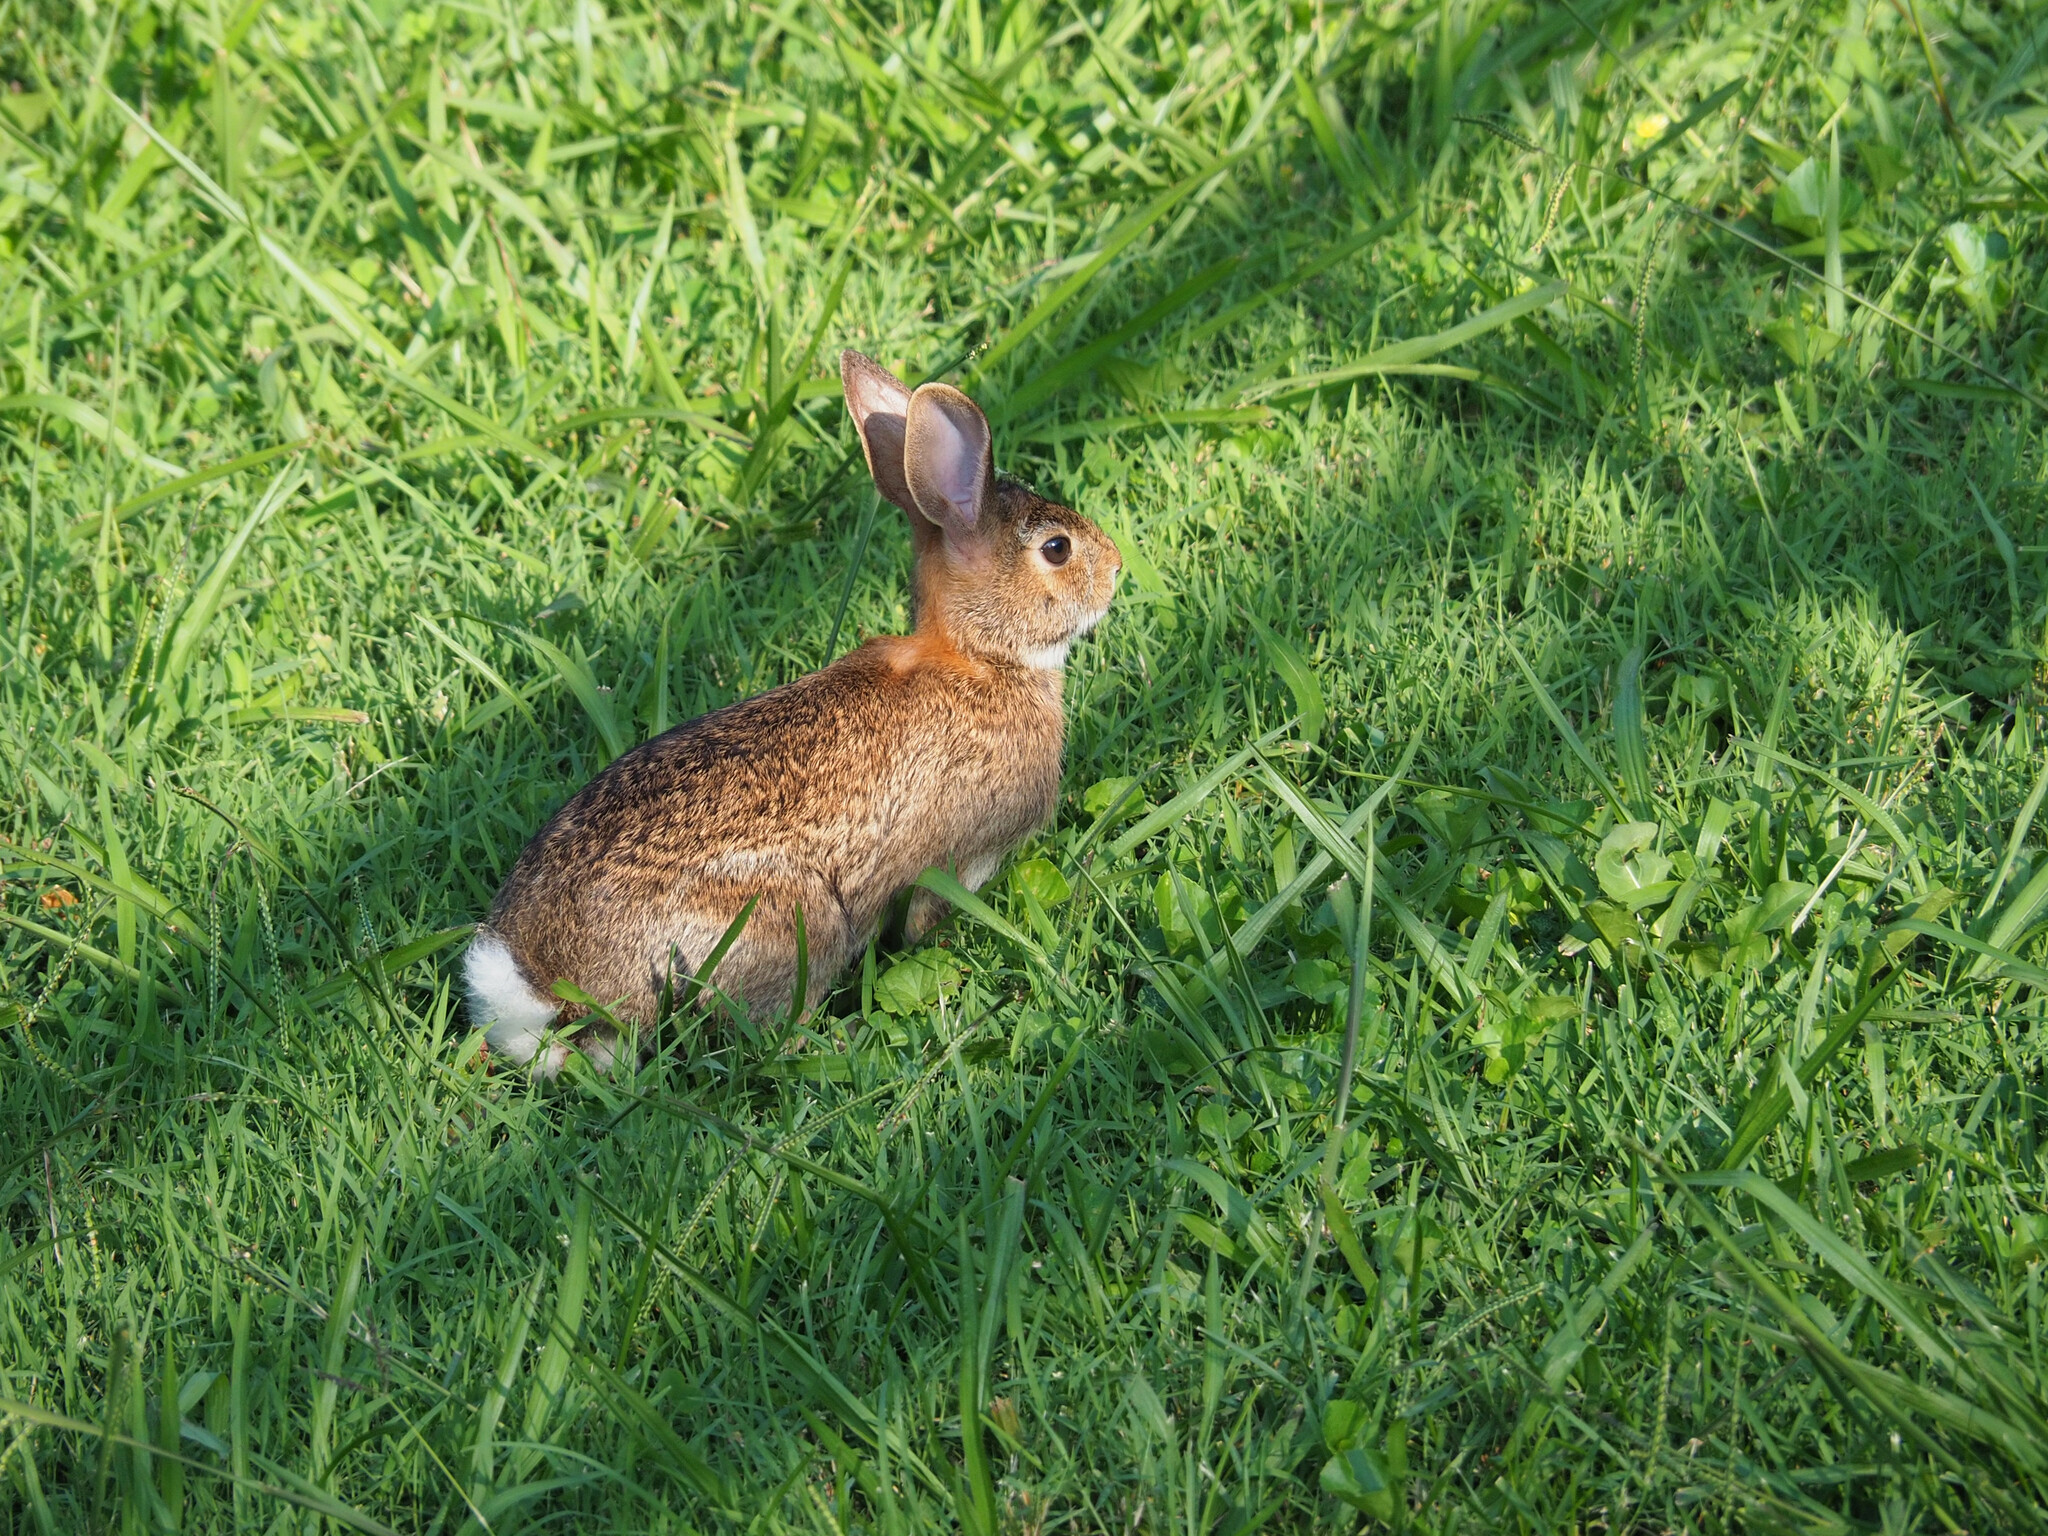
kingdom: Animalia
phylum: Chordata
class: Mammalia
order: Lagomorpha
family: Leporidae
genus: Sylvilagus
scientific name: Sylvilagus floridanus
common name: Eastern cottontail
